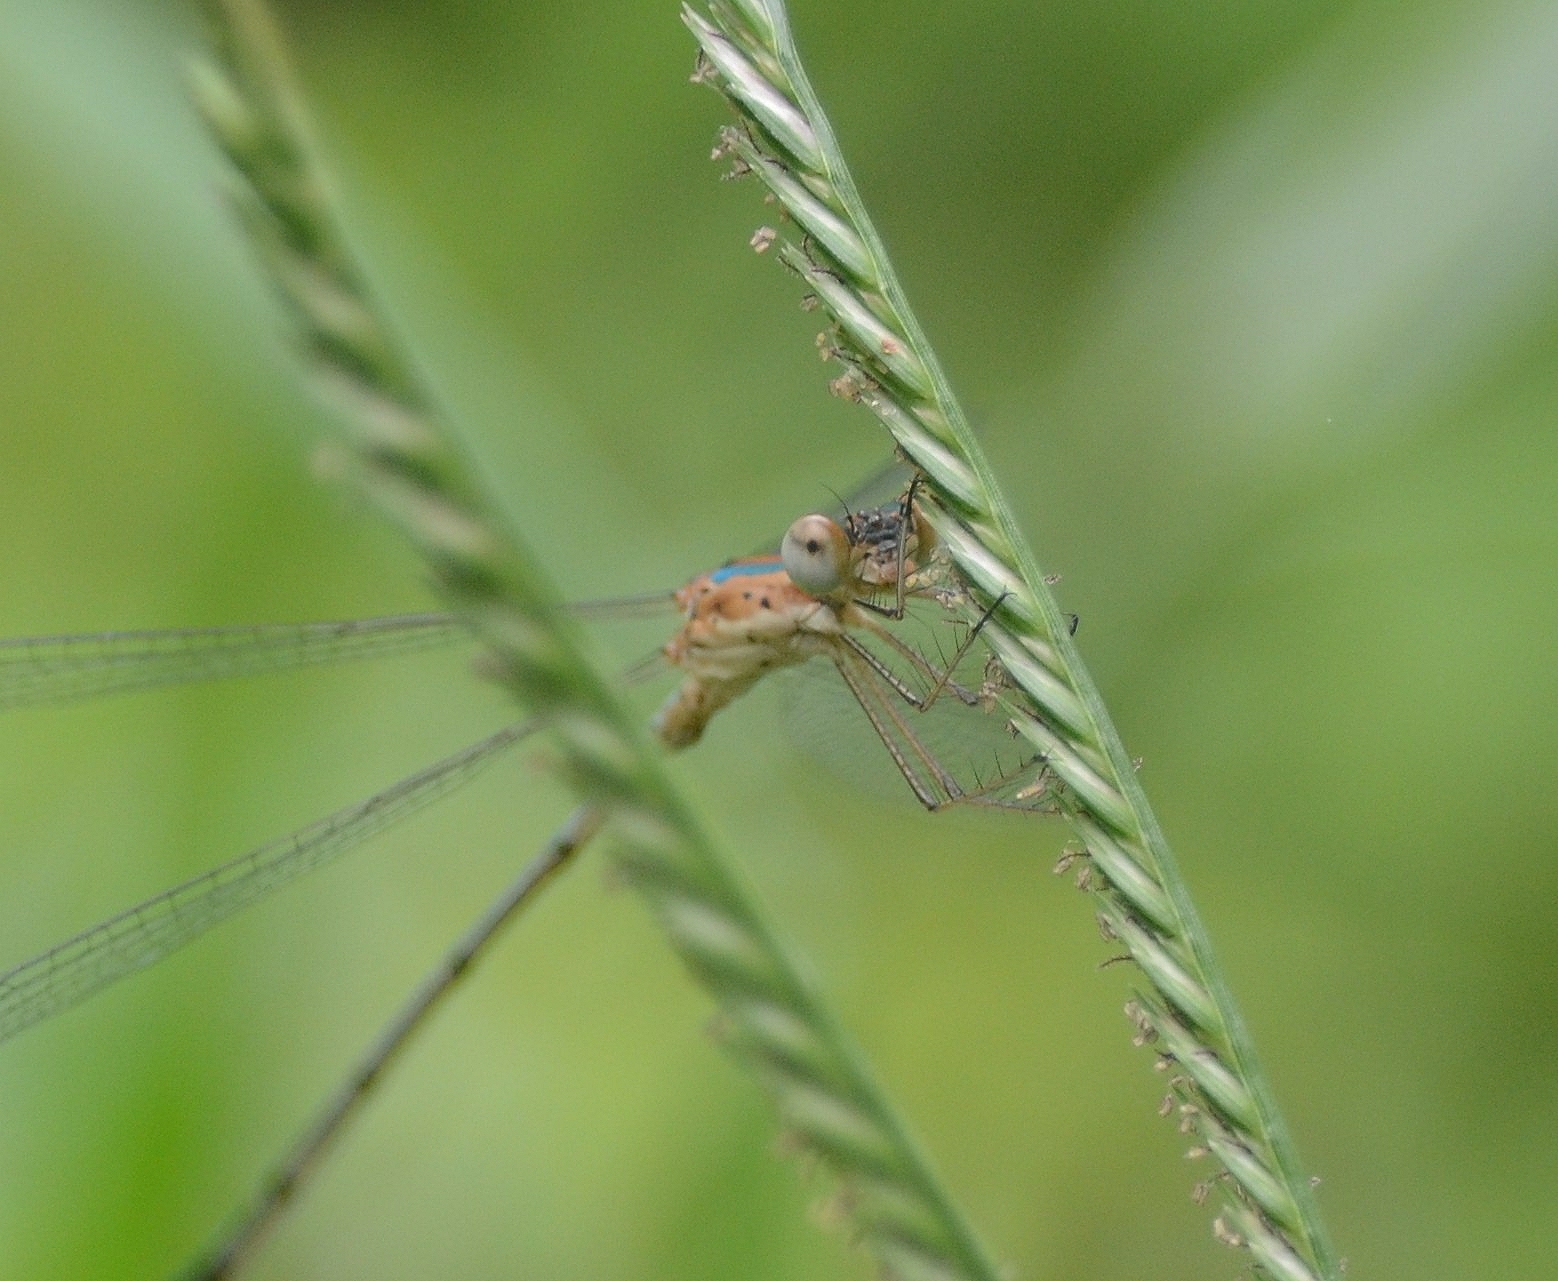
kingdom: Animalia
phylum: Arthropoda
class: Insecta
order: Odonata
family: Lestidae
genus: Lestes
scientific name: Lestes elatus
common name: Emerald spreadwing
